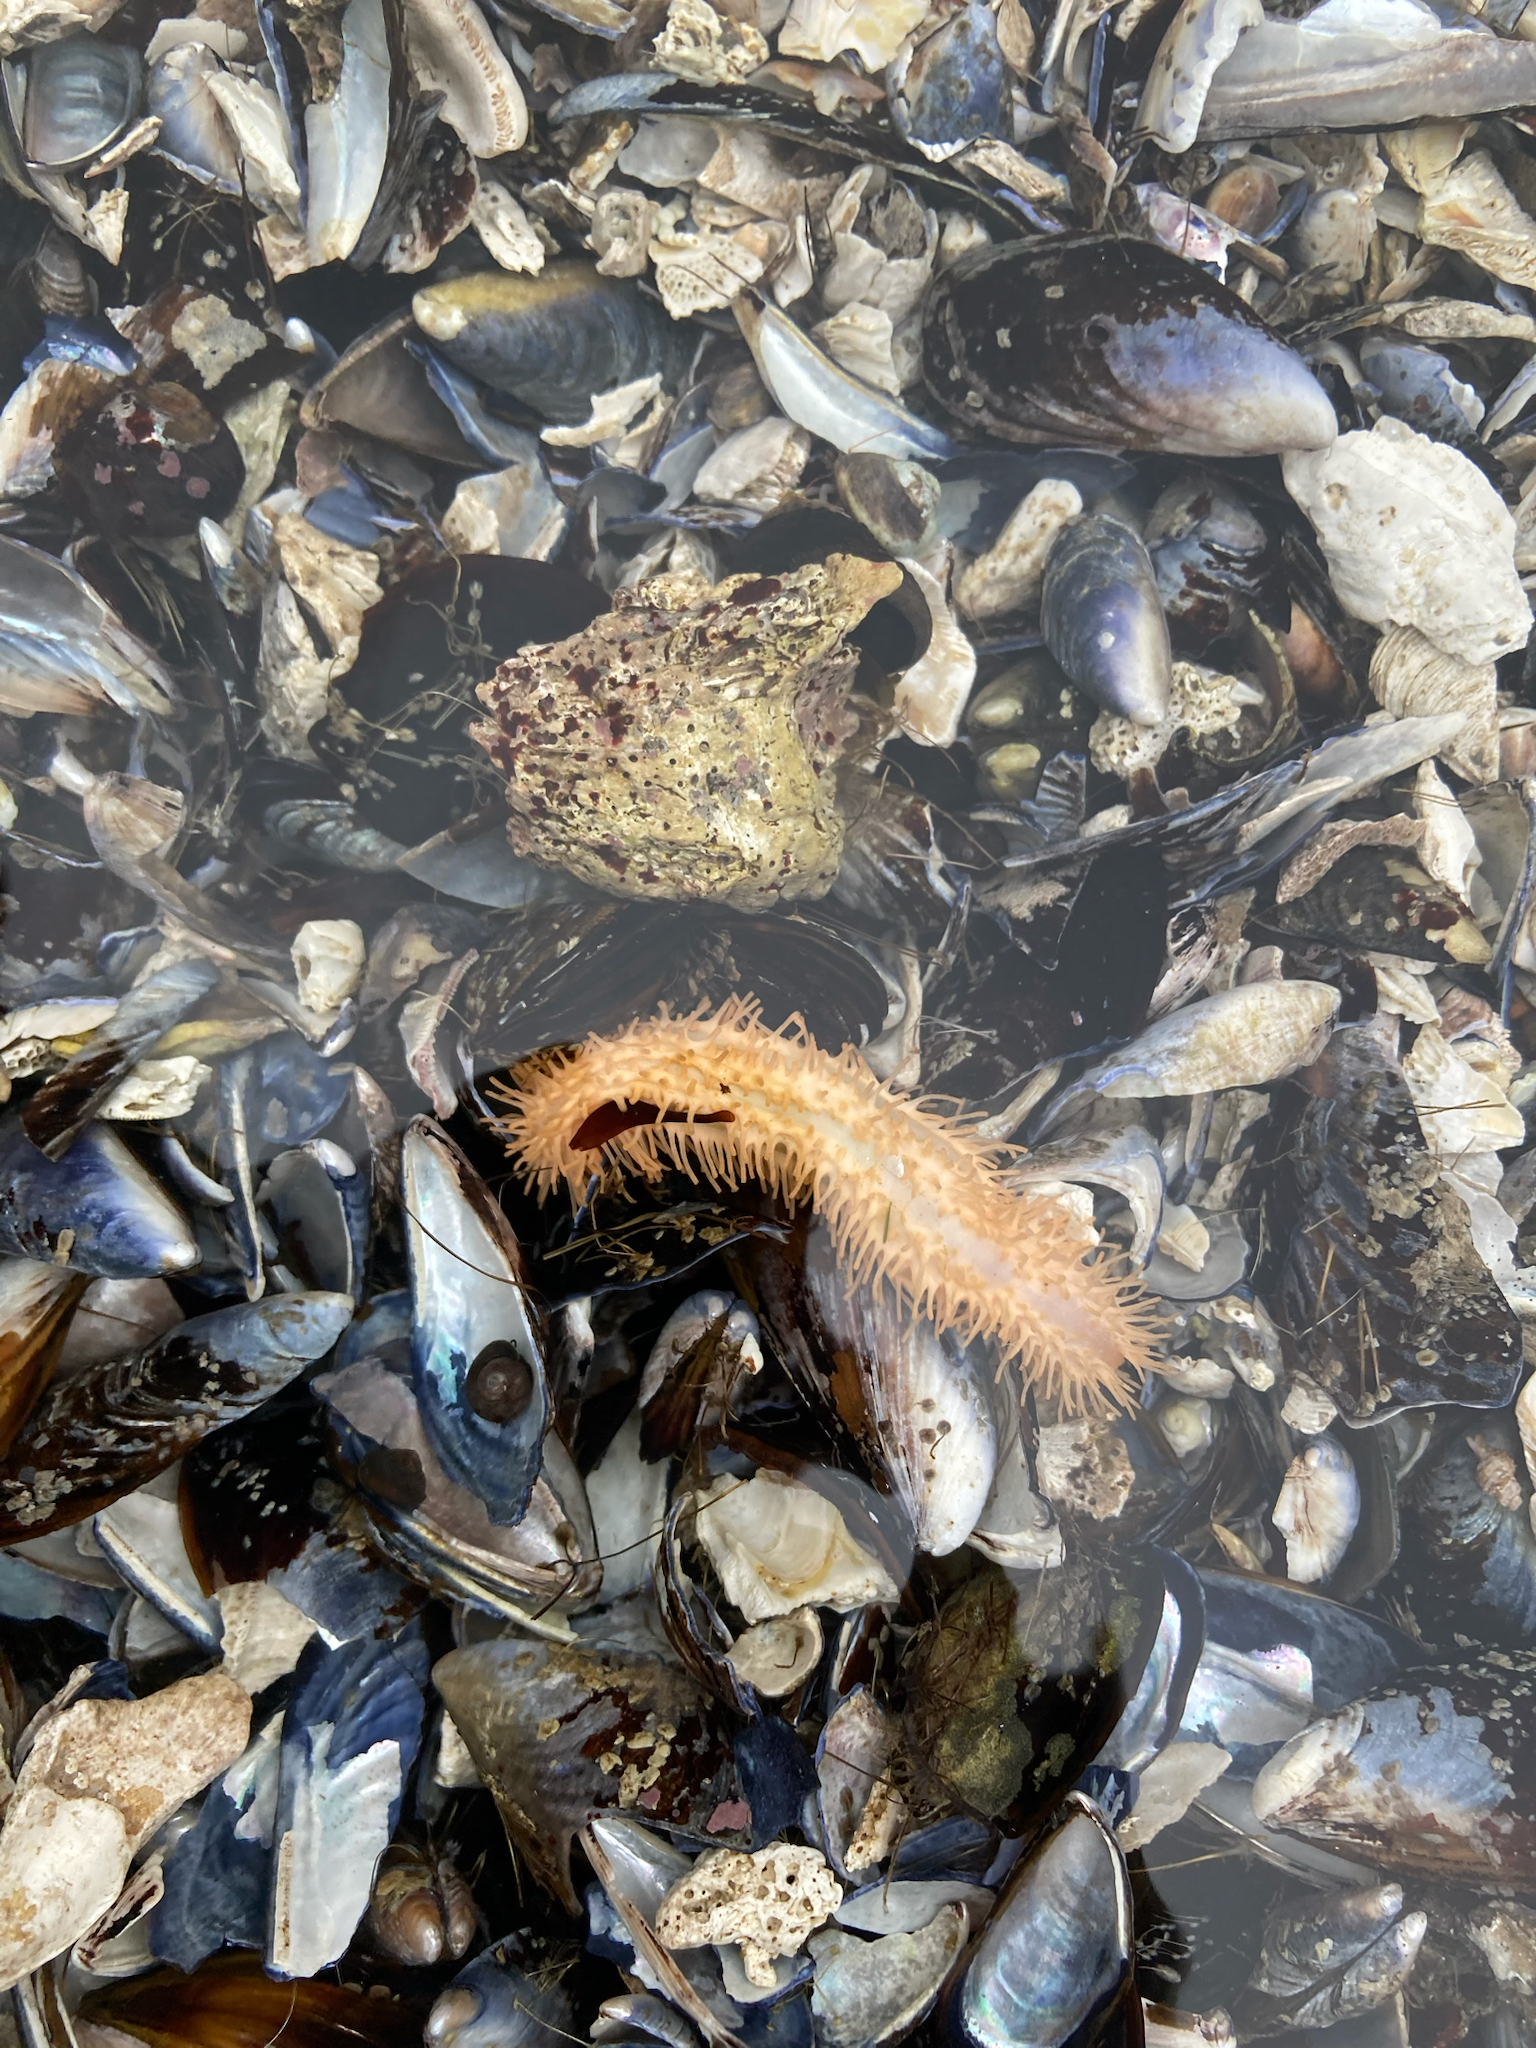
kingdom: Animalia
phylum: Echinodermata
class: Holothuroidea
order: Dendrochirotida
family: Sclerodactylidae
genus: Eupentacta
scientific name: Eupentacta quinquesemita
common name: Pentamerous sea cucumber
